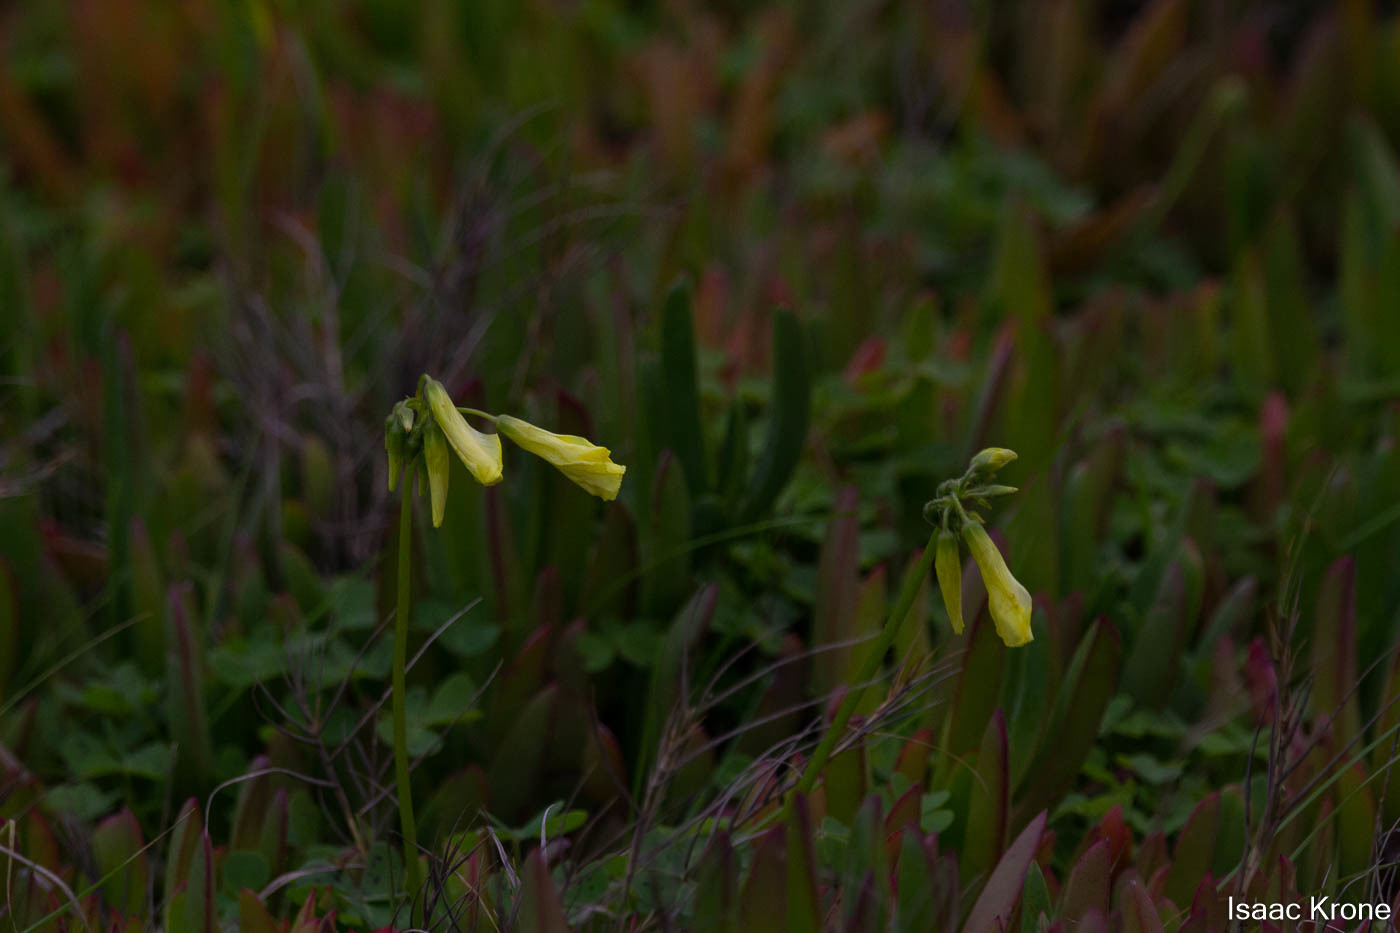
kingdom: Plantae
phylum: Tracheophyta
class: Magnoliopsida
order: Oxalidales
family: Oxalidaceae
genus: Oxalis
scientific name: Oxalis pes-caprae
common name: Bermuda-buttercup
